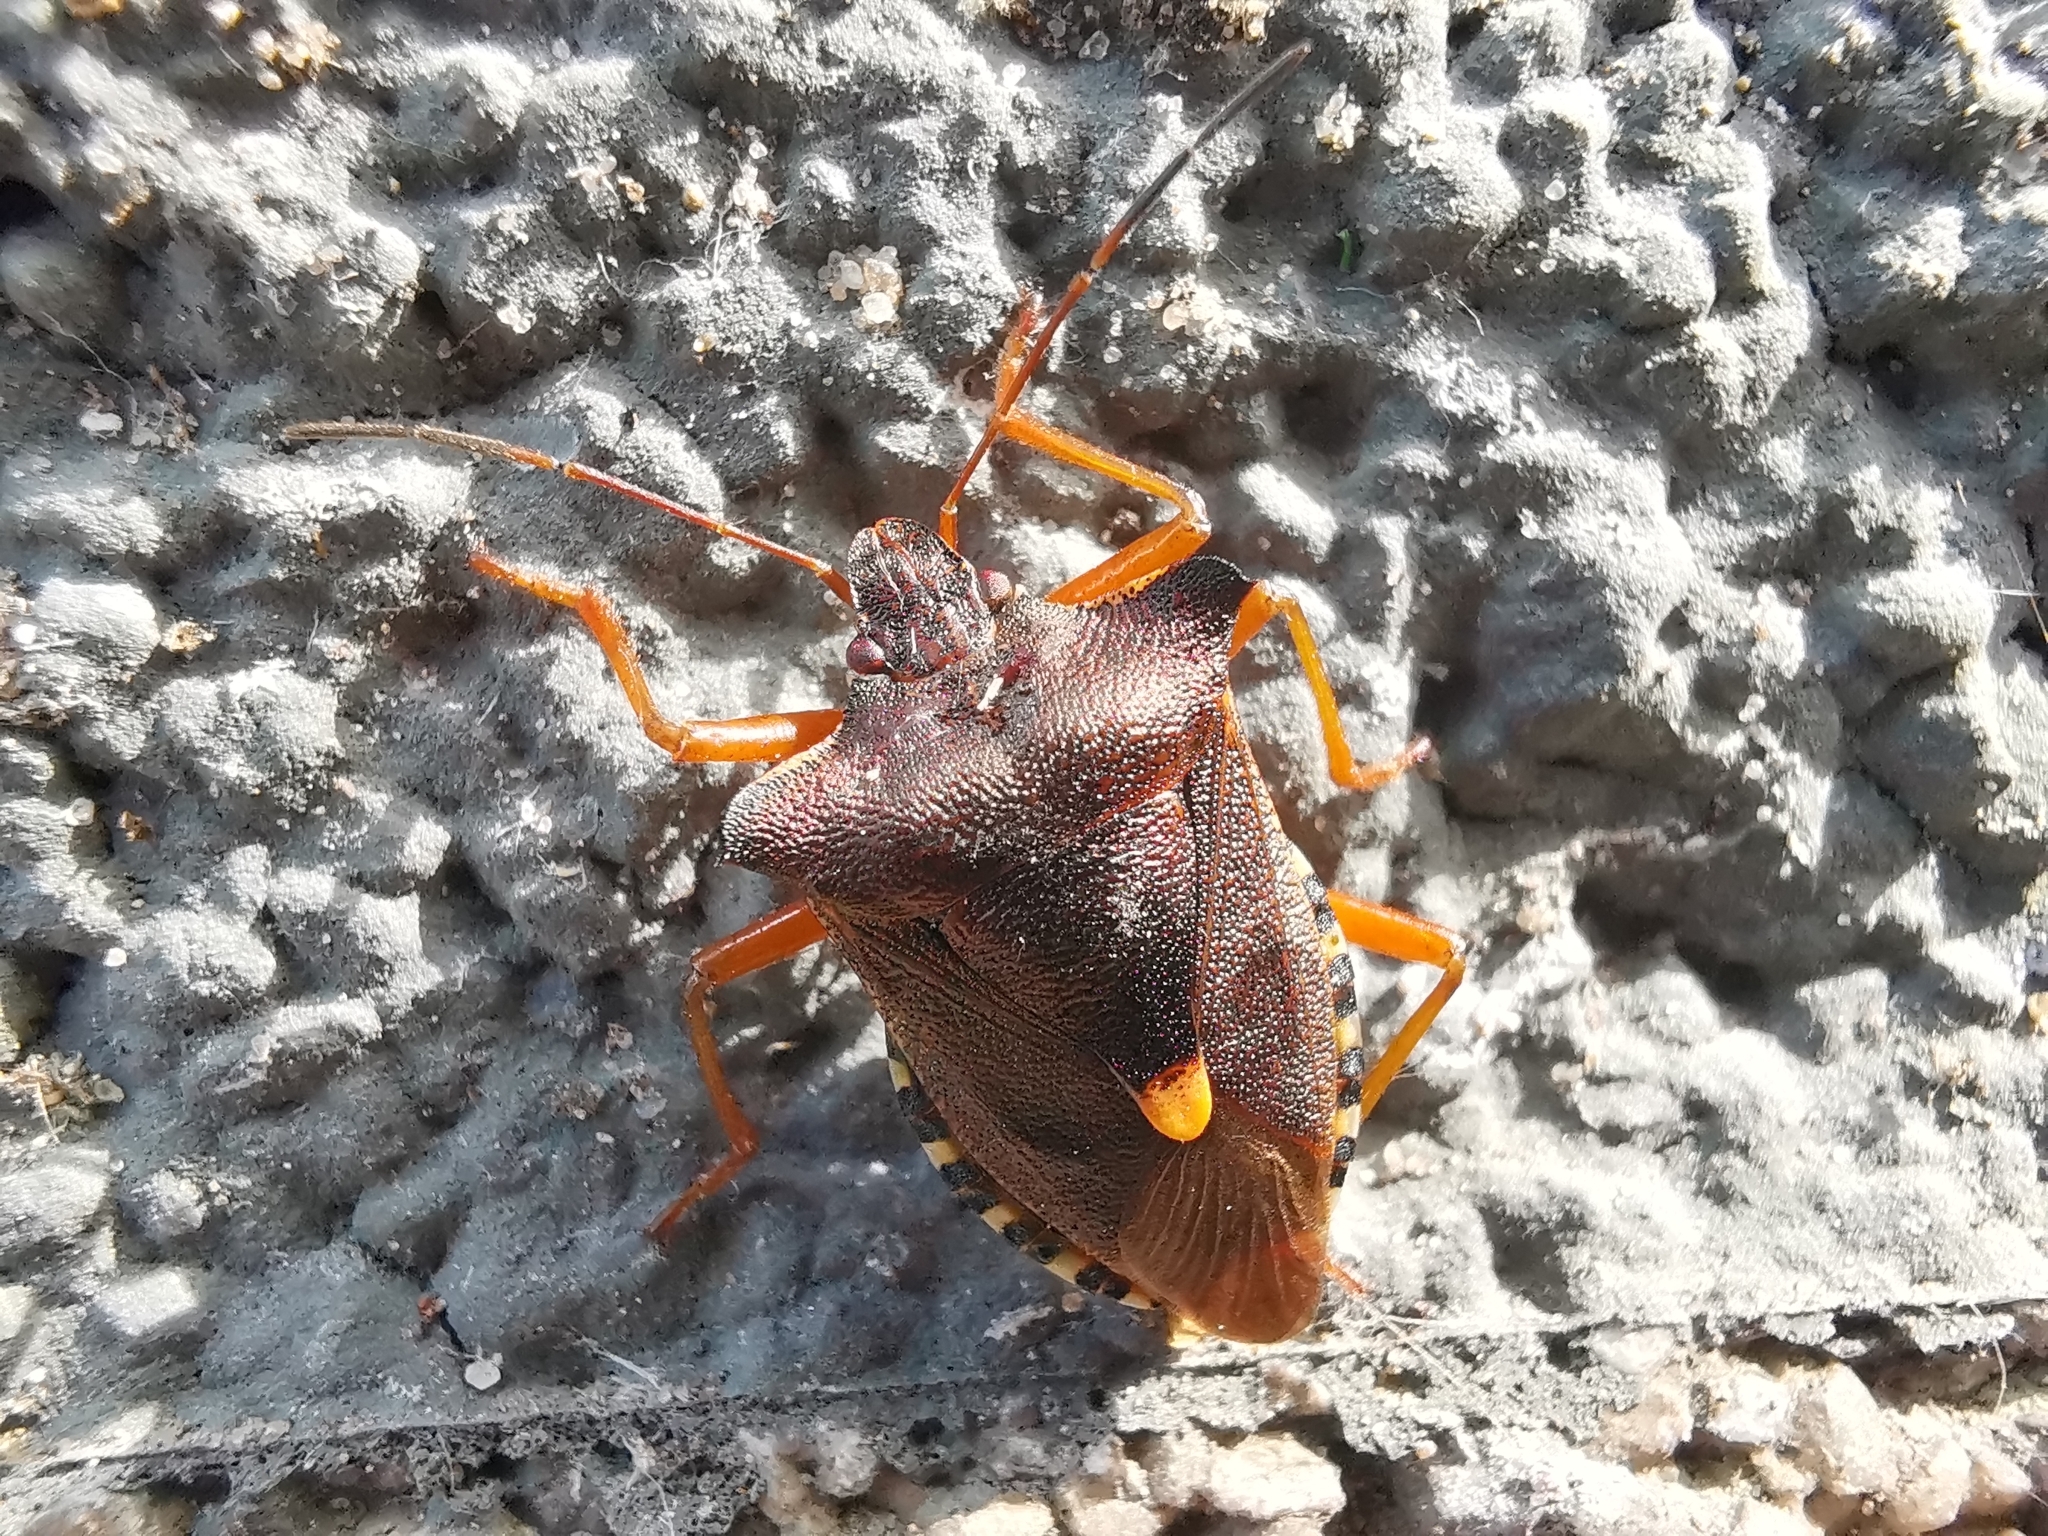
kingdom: Animalia
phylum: Arthropoda
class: Insecta
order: Hemiptera
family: Pentatomidae
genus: Pentatoma
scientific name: Pentatoma rufipes
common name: Forest bug
